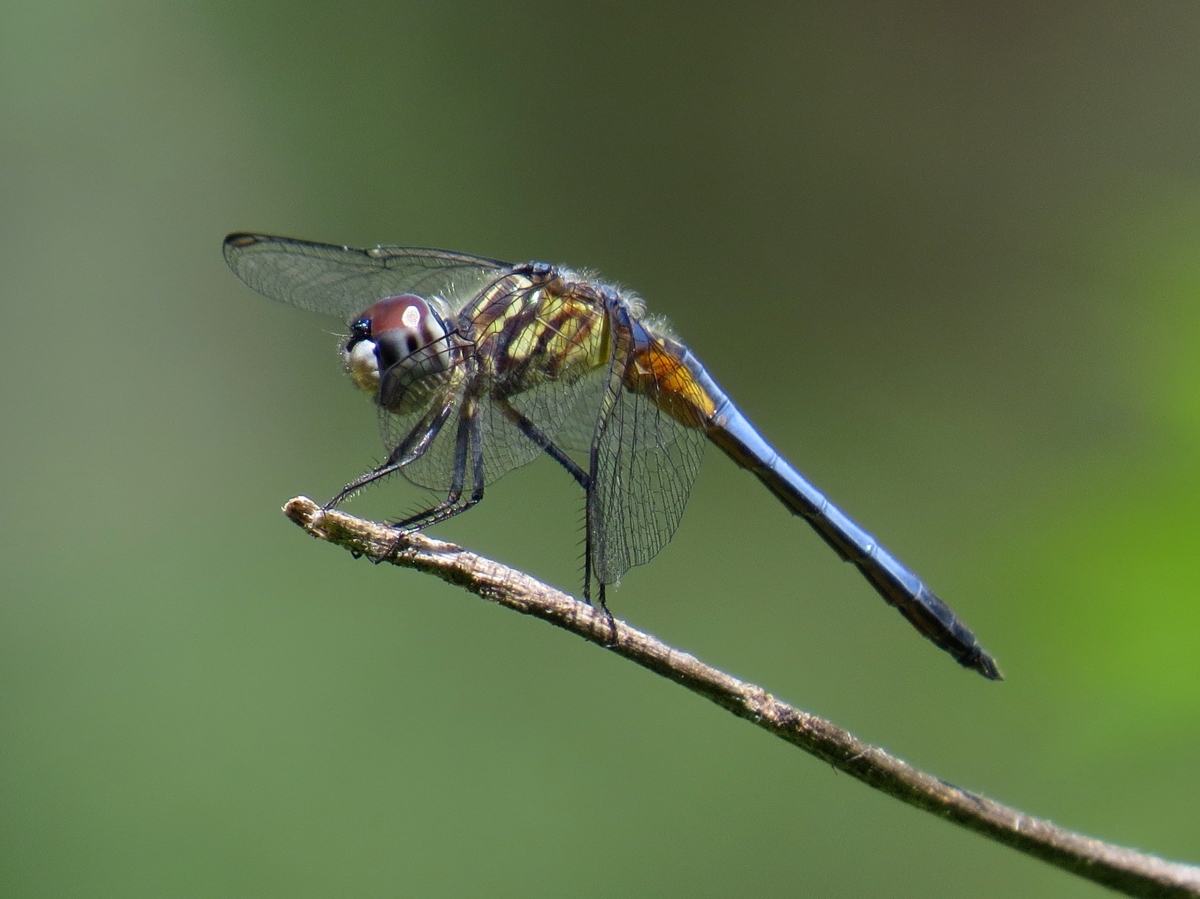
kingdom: Animalia
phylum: Arthropoda
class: Insecta
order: Odonata
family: Libellulidae
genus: Pachydiplax
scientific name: Pachydiplax longipennis
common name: Blue dasher
